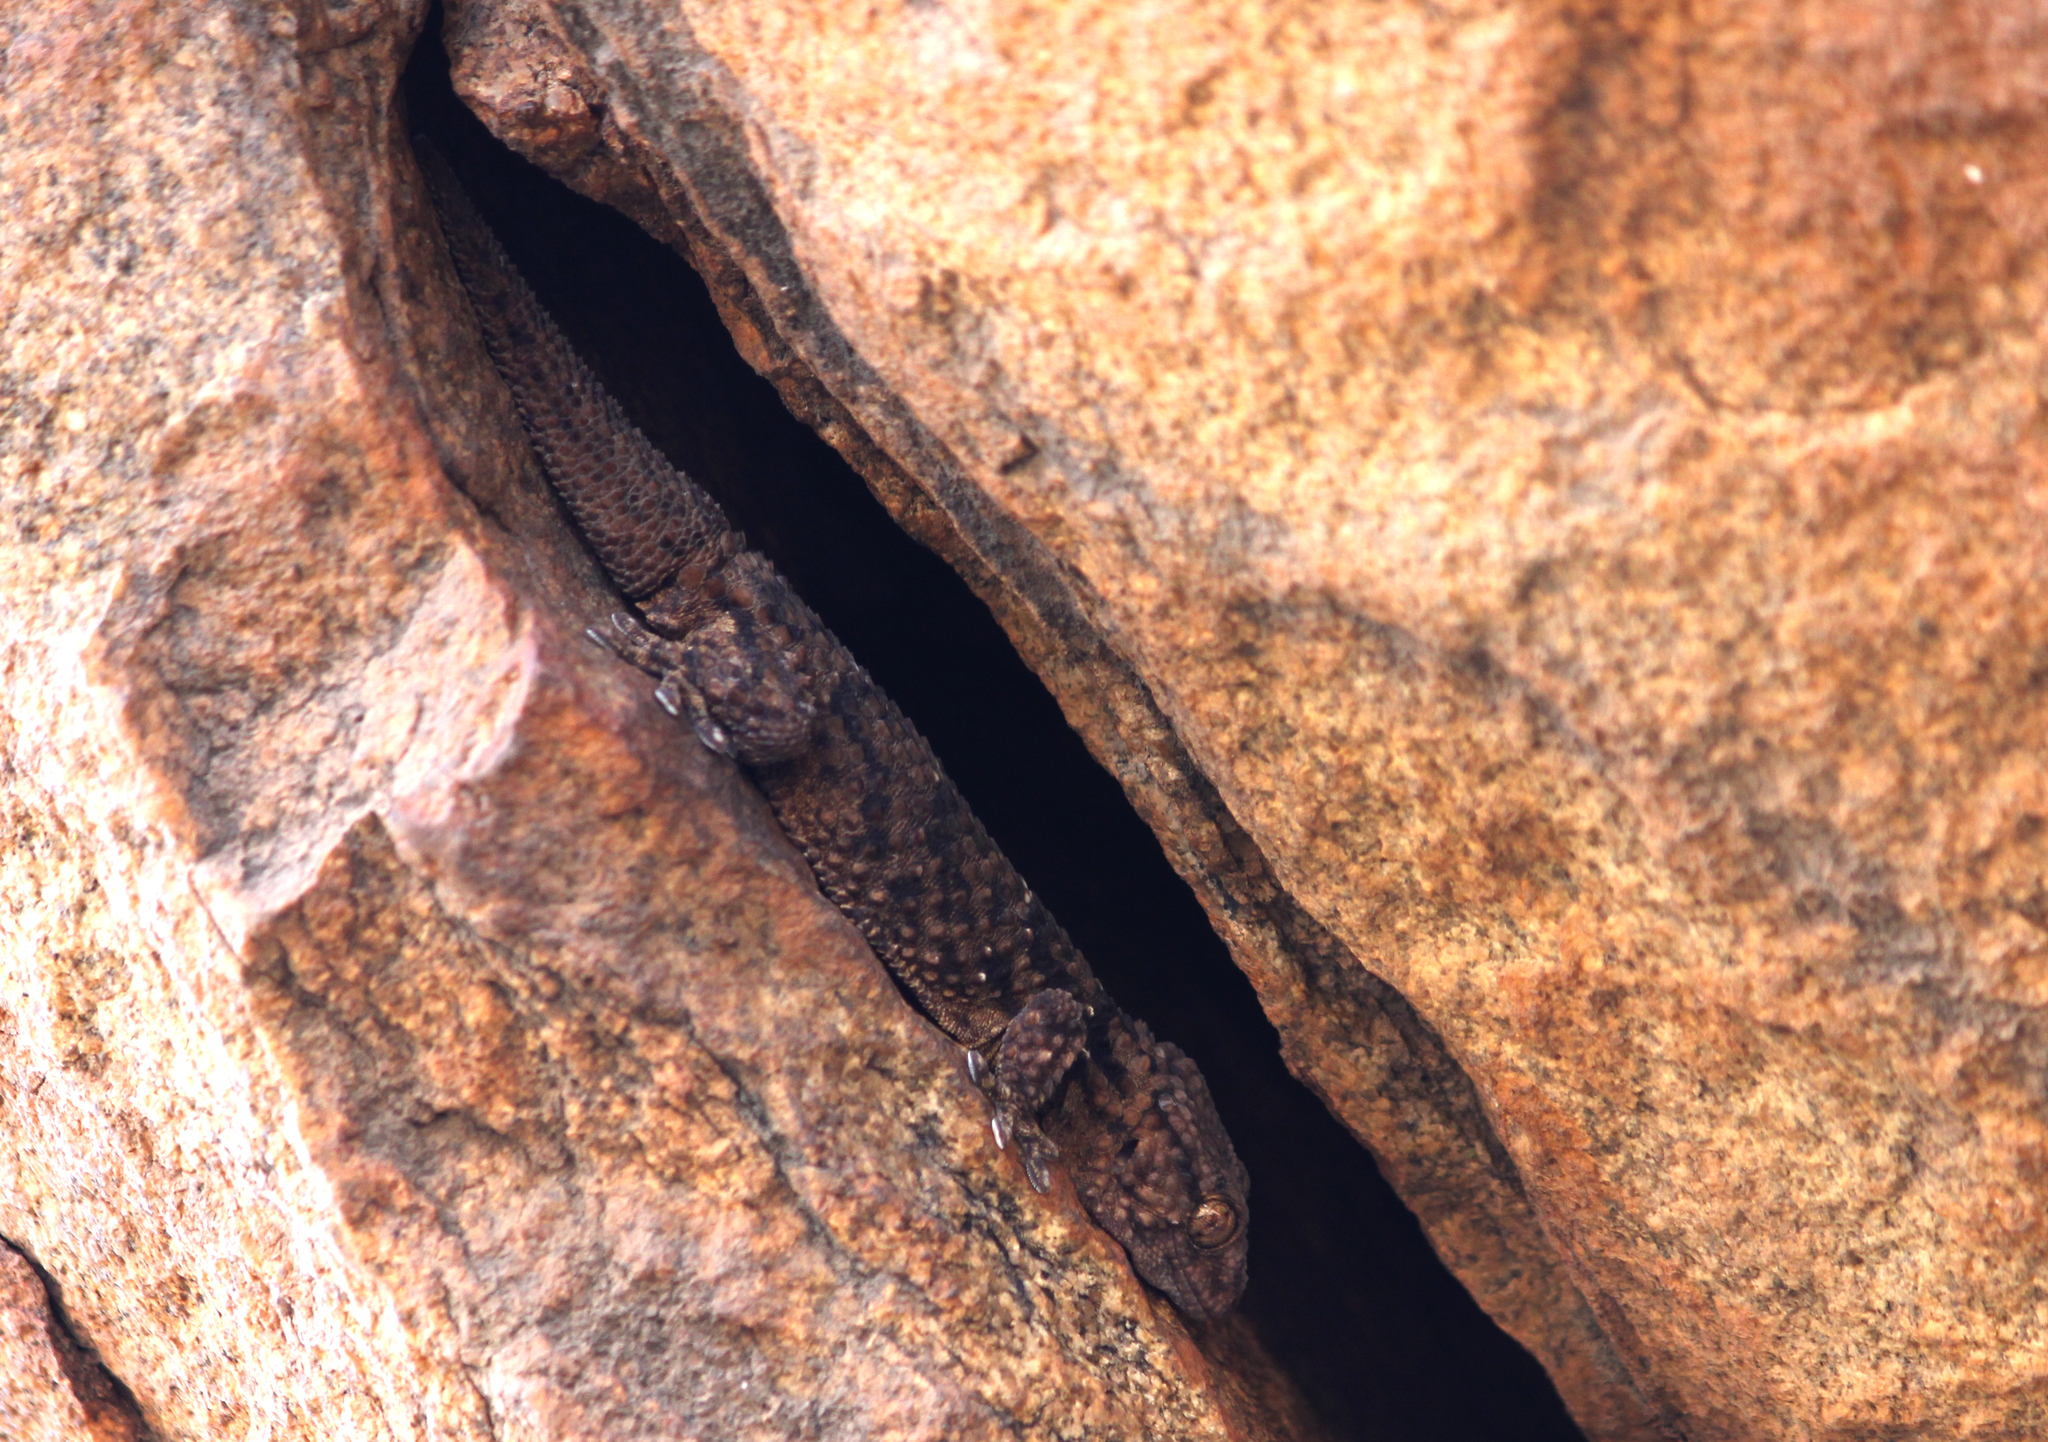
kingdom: Animalia
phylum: Chordata
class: Squamata
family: Gekkonidae
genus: Chondrodactylus
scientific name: Chondrodactylus bibronii
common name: Bibron's gecko
